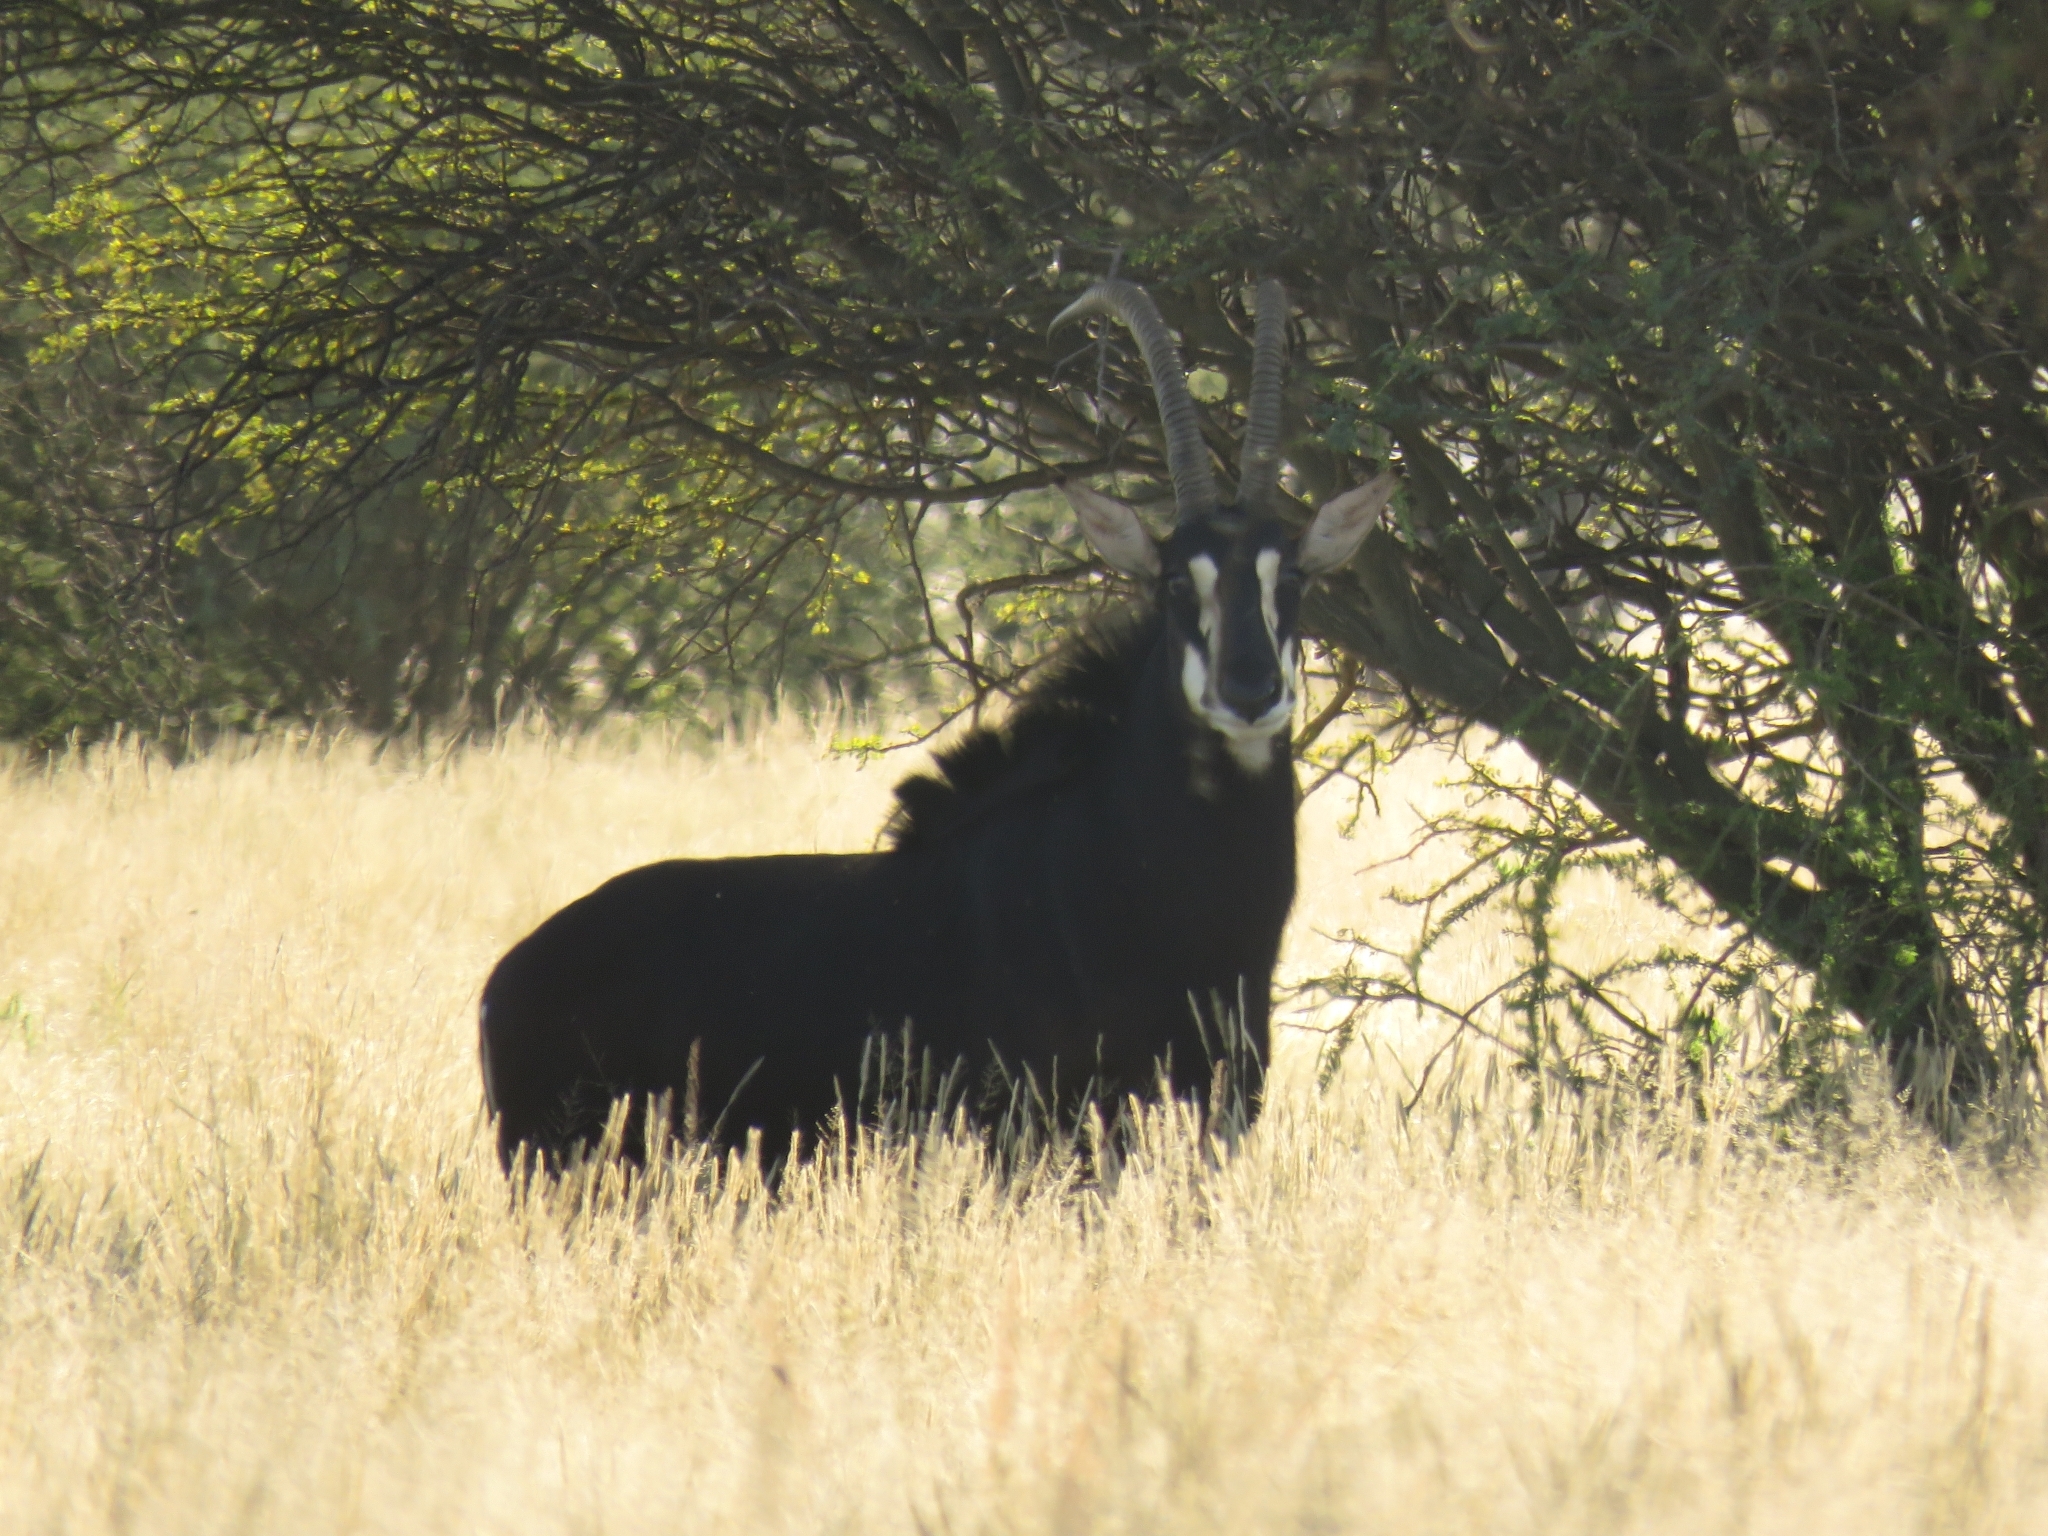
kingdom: Animalia
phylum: Chordata
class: Mammalia
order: Artiodactyla
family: Bovidae
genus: Hippotragus
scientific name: Hippotragus niger
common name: Sable antelope
